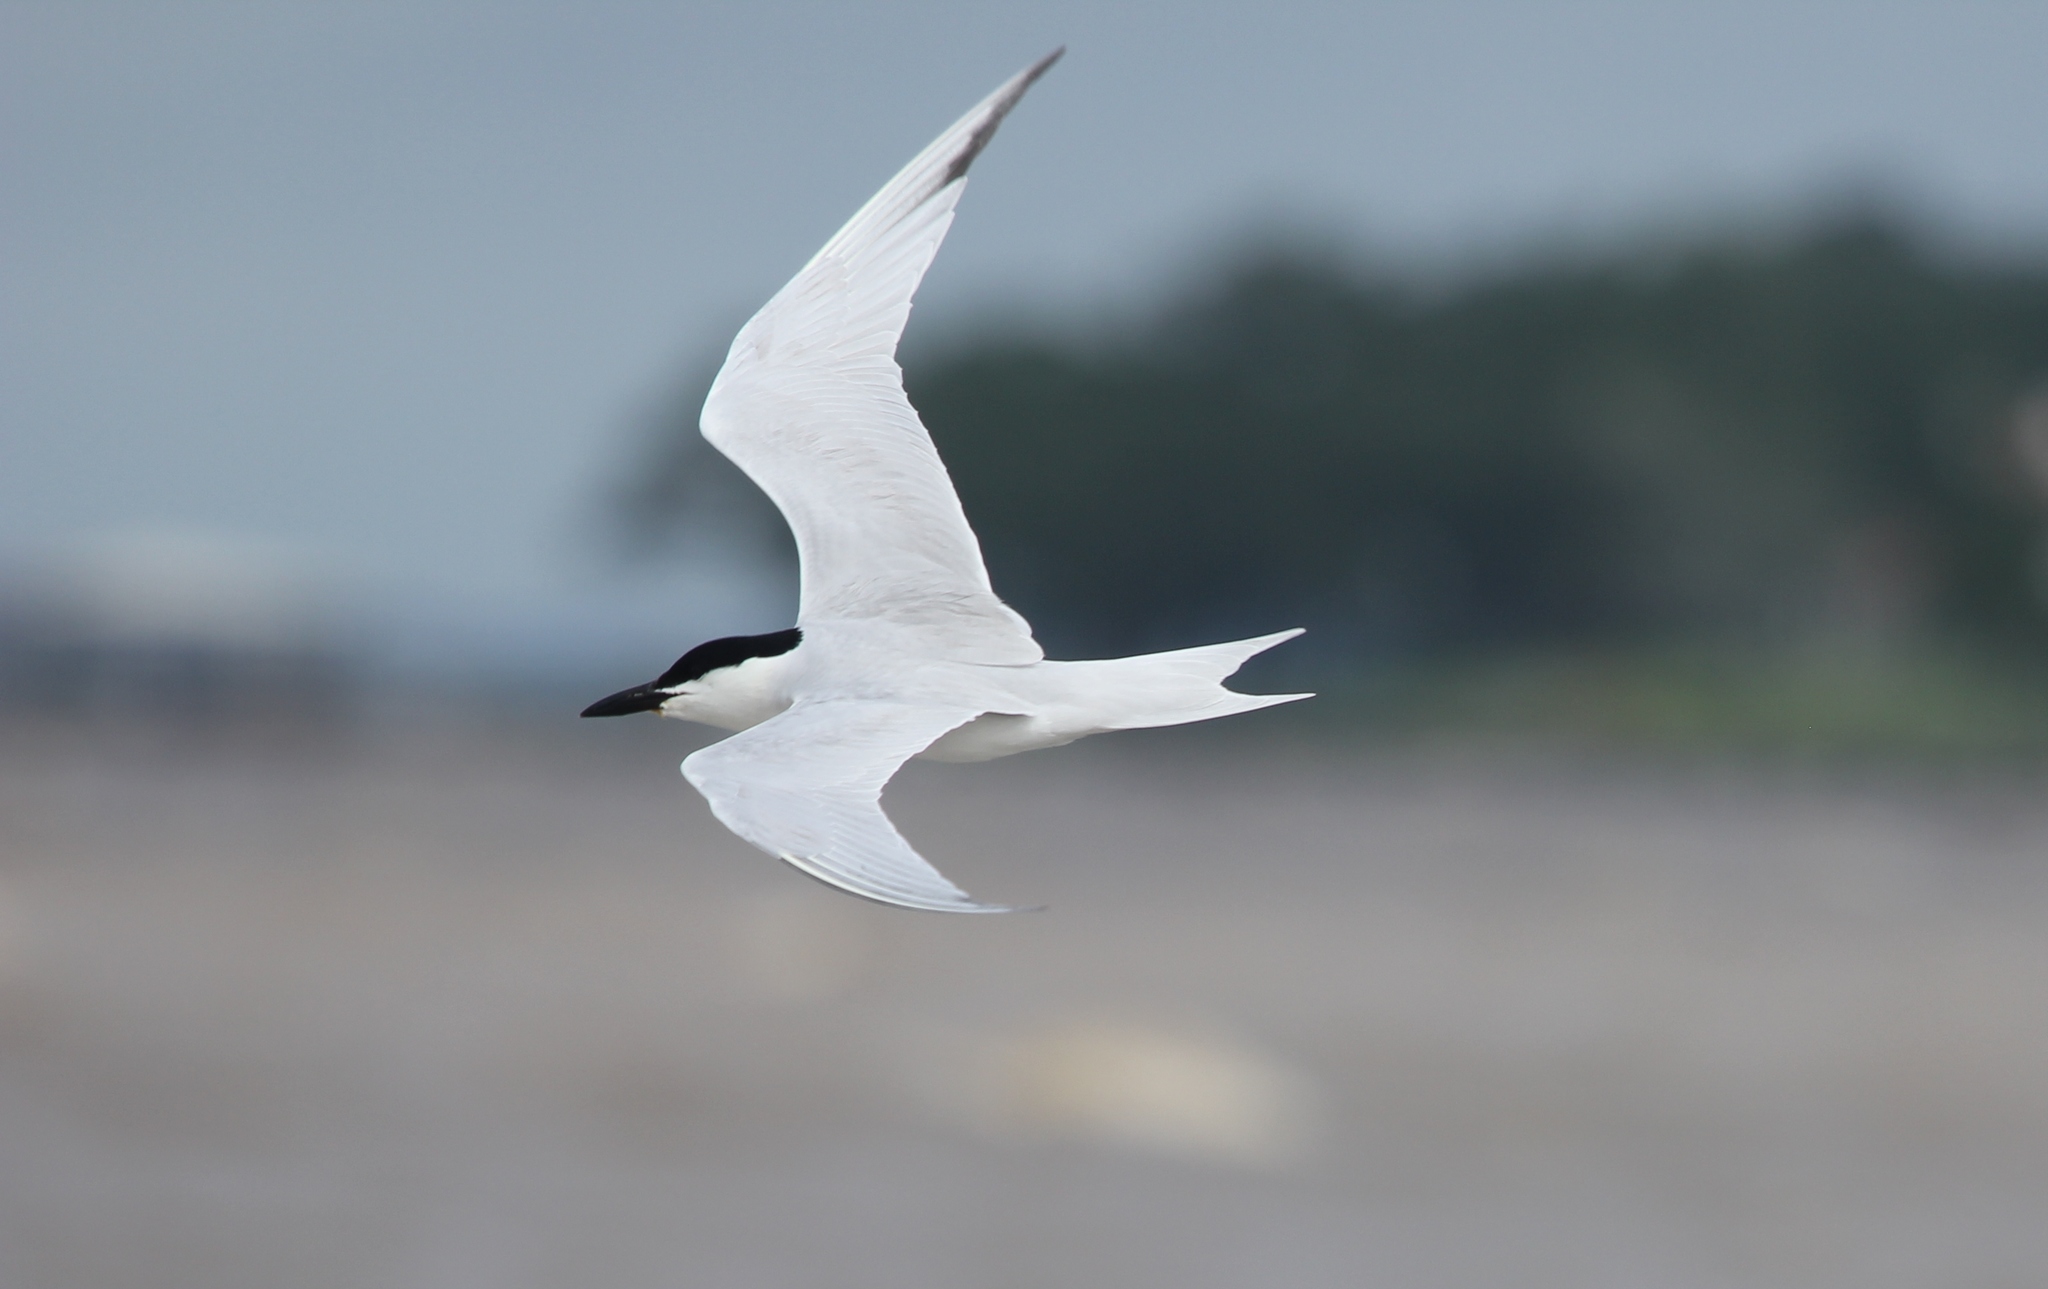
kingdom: Animalia
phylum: Chordata
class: Aves
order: Charadriiformes
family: Laridae
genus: Gelochelidon
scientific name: Gelochelidon nilotica
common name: Gull-billed tern
